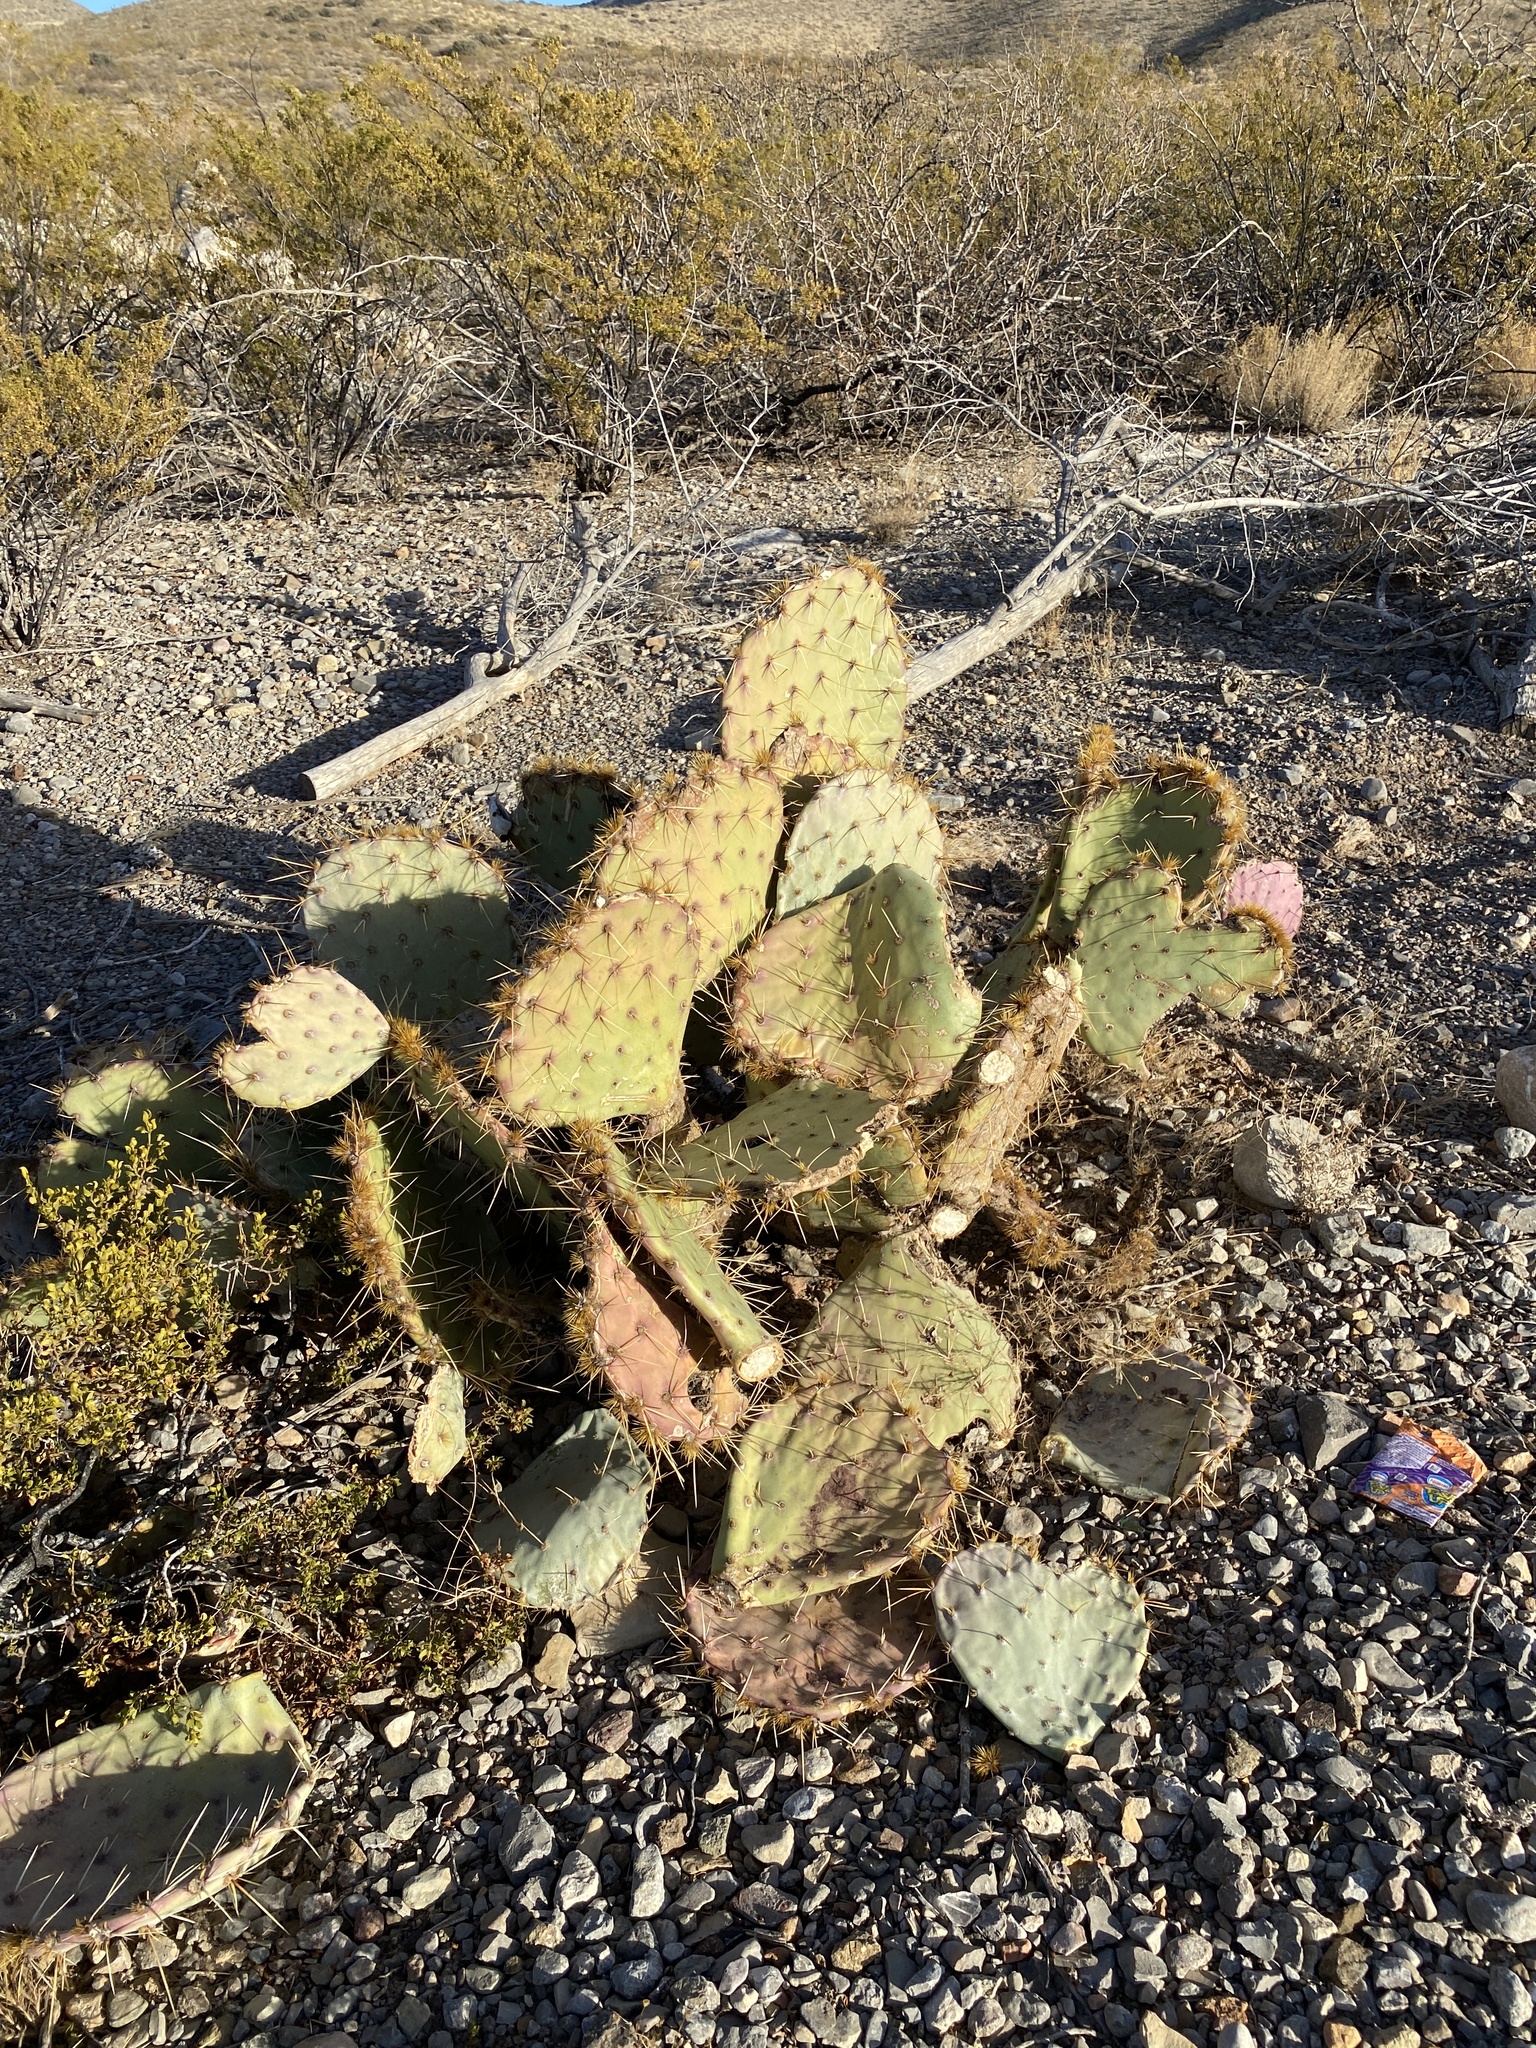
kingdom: Plantae
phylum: Tracheophyta
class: Magnoliopsida
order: Caryophyllales
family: Cactaceae
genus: Opuntia
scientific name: Opuntia engelmannii
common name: Cactus-apple
